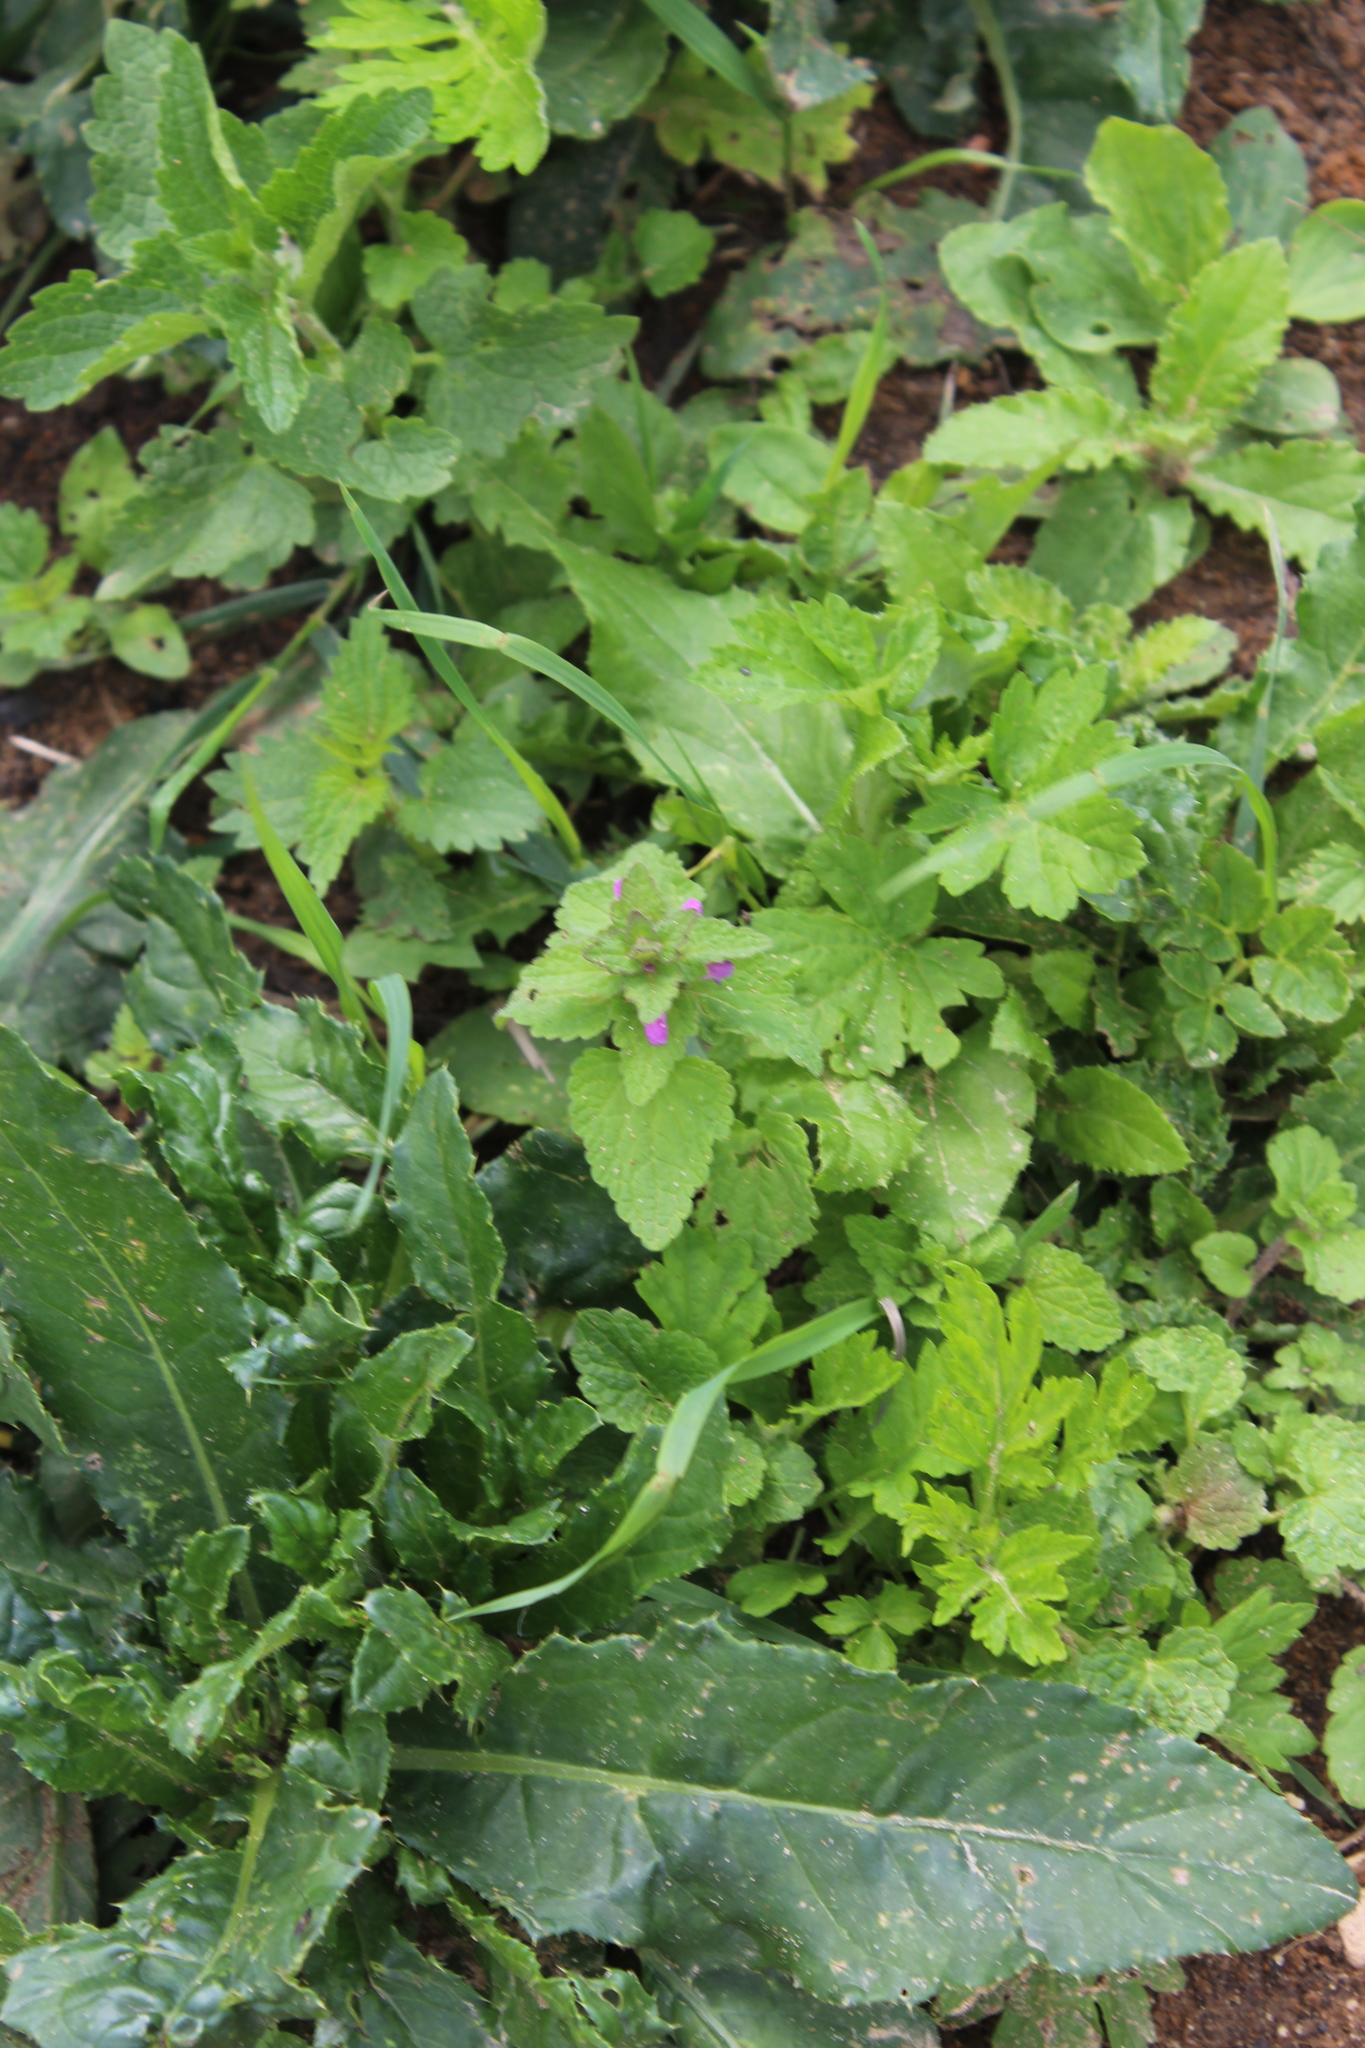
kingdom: Plantae
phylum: Tracheophyta
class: Magnoliopsida
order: Lamiales
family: Lamiaceae
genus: Lamium
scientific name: Lamium purpureum
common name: Red dead-nettle
